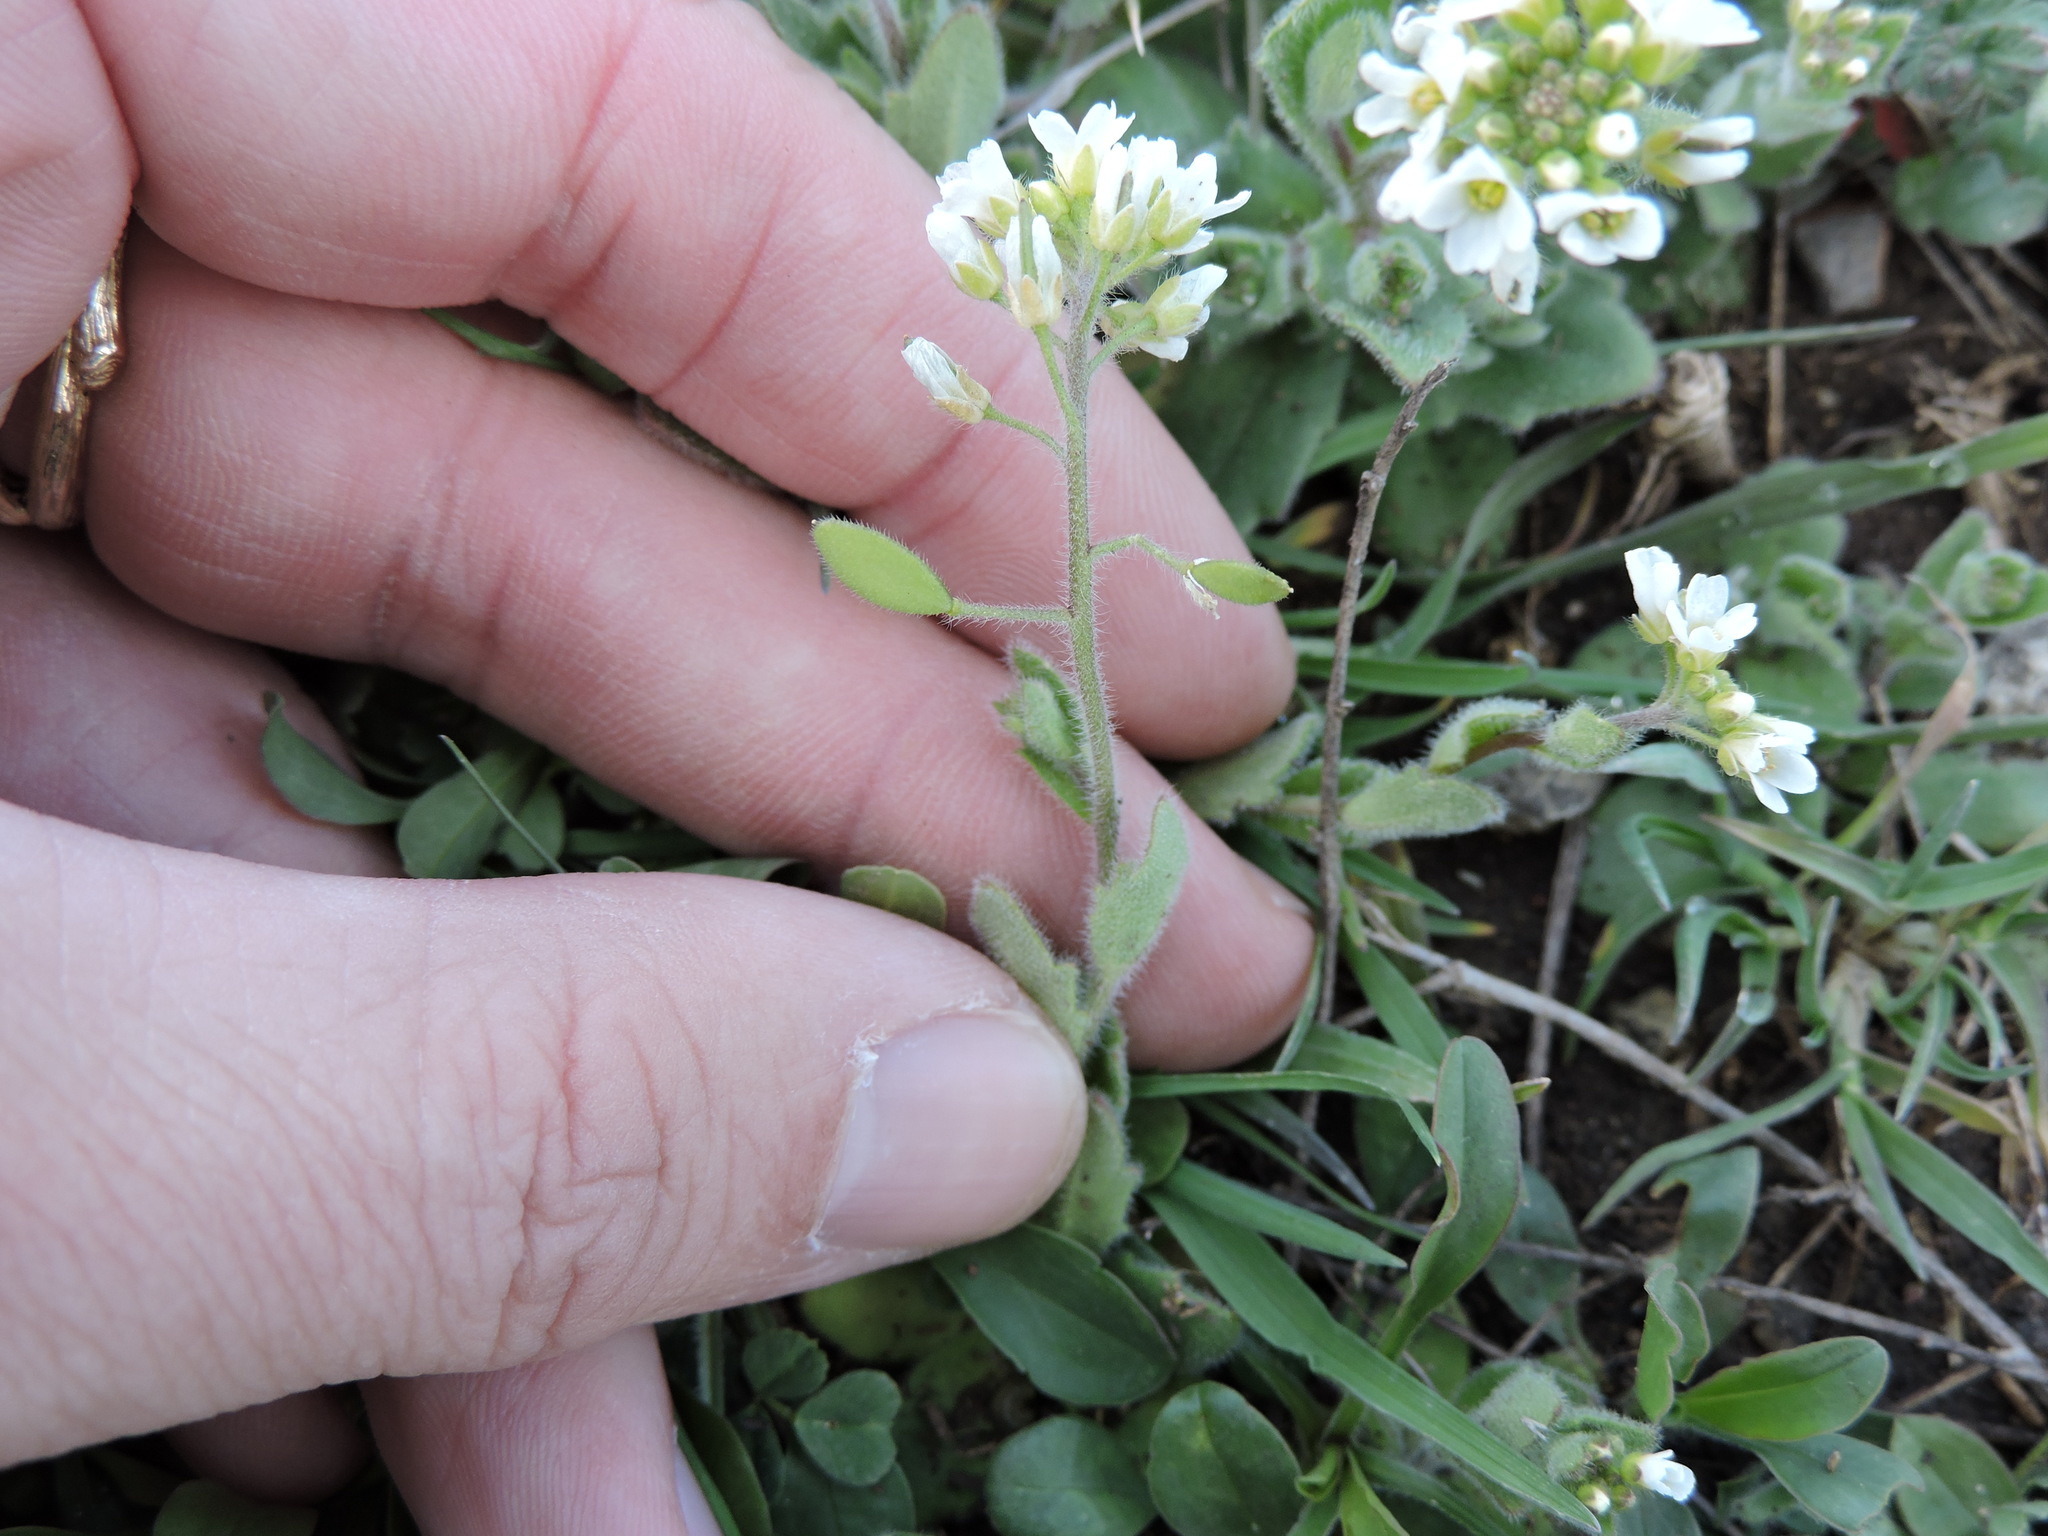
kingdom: Plantae
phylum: Tracheophyta
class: Magnoliopsida
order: Brassicales
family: Brassicaceae
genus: Tomostima
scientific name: Tomostima platycarpa
